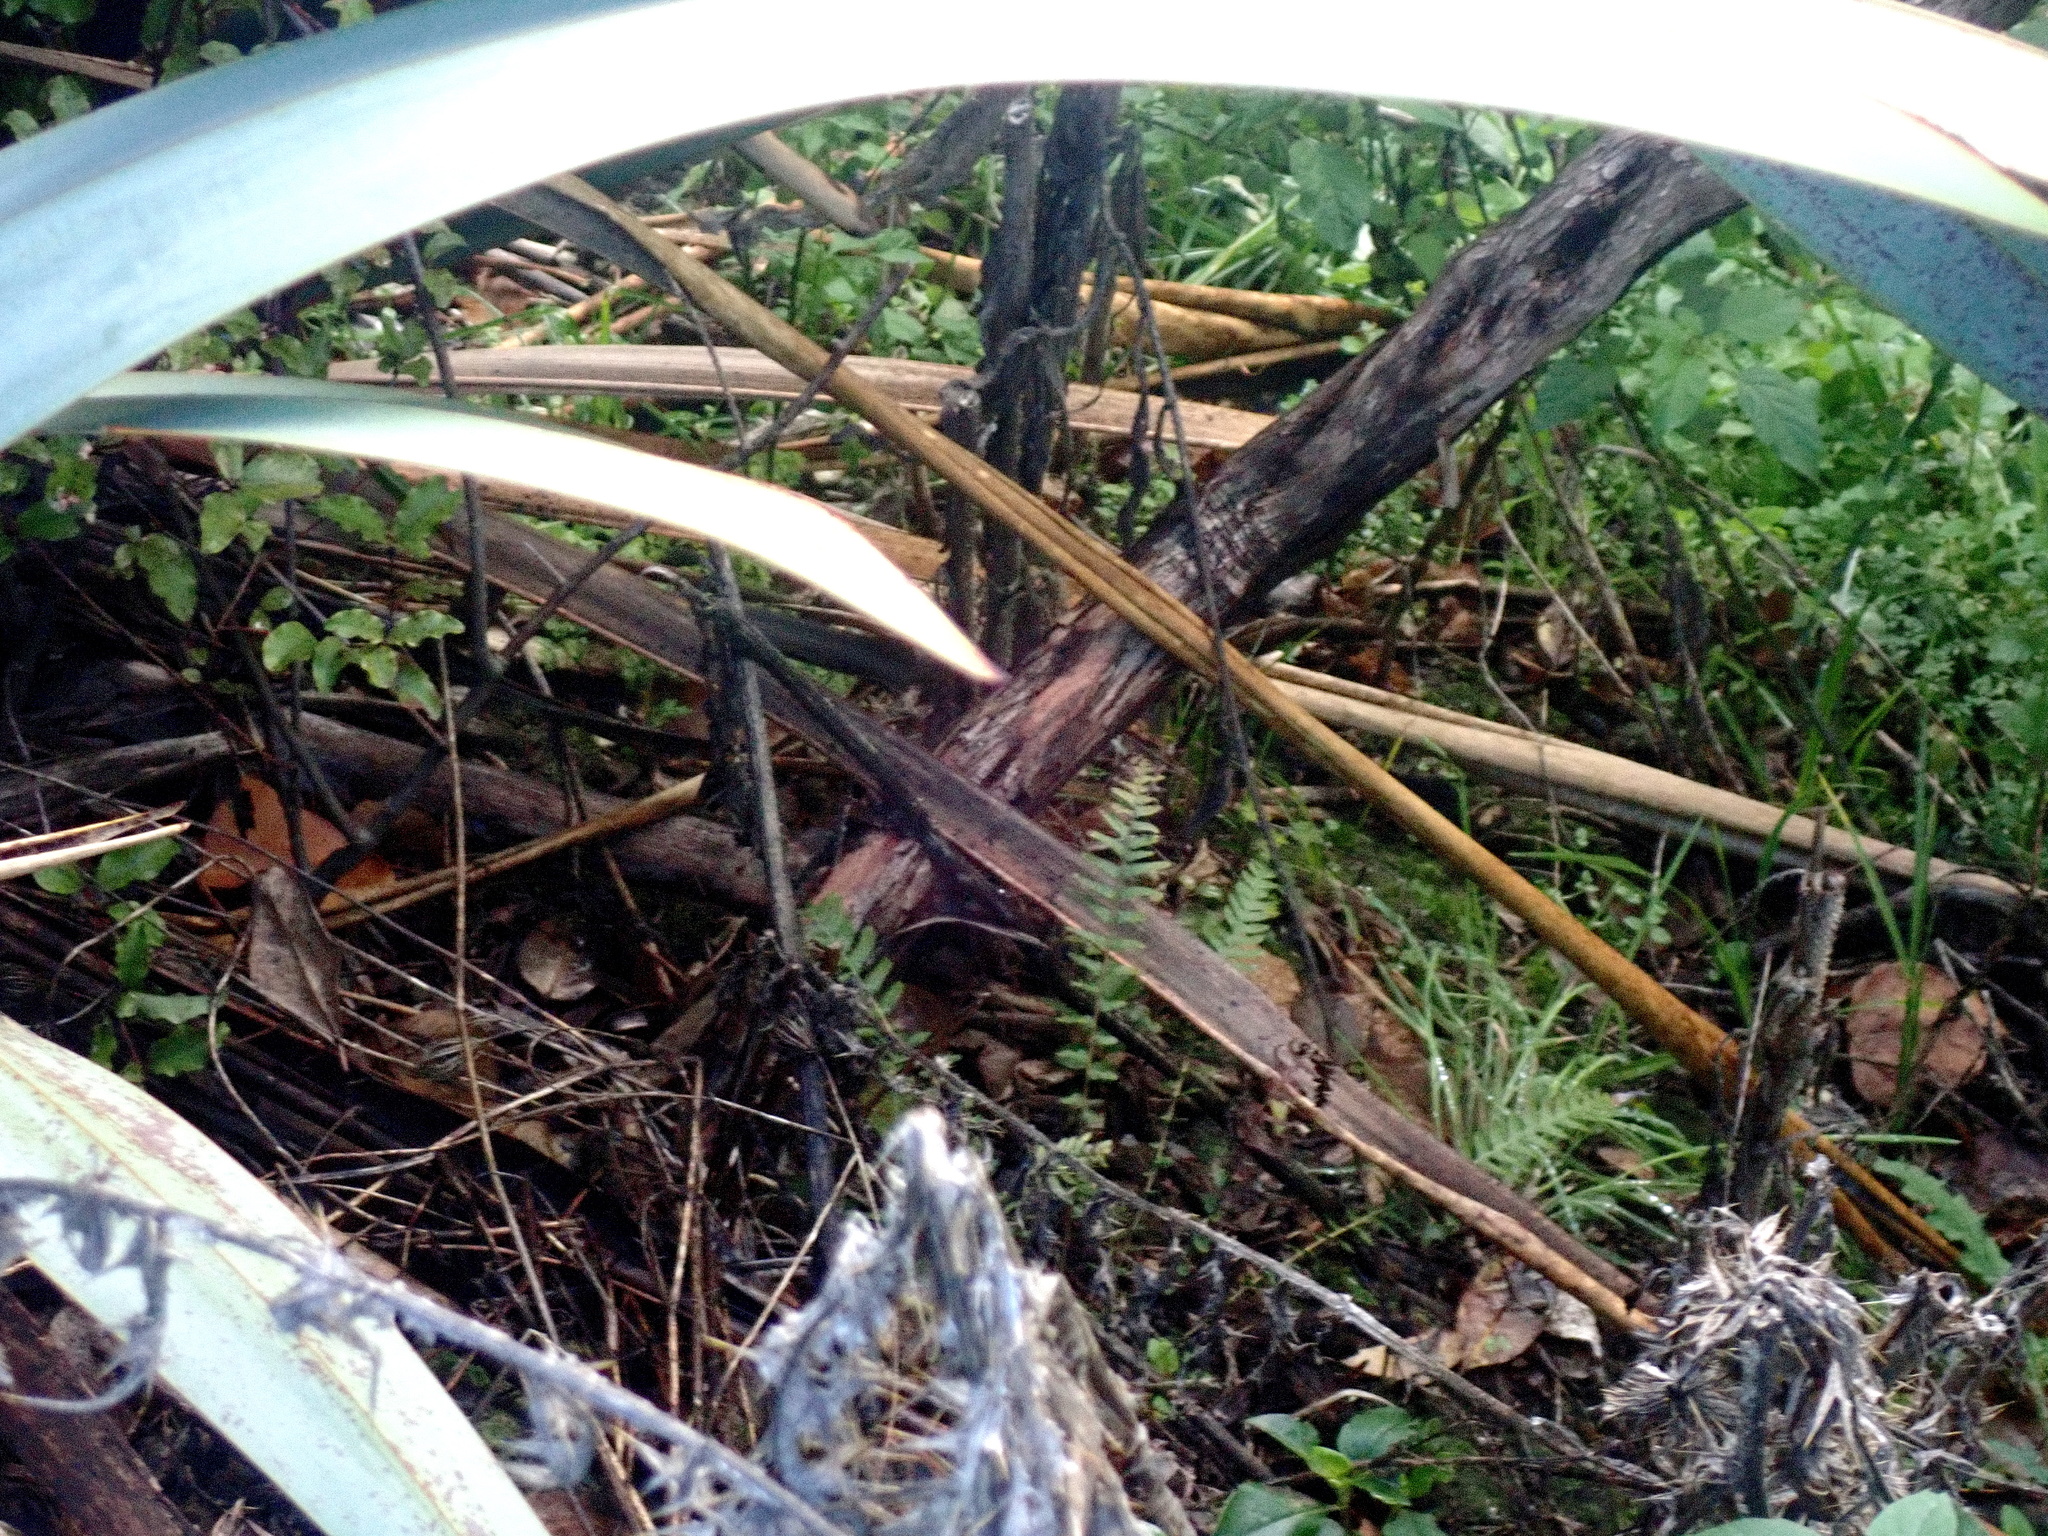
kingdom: Plantae
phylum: Tracheophyta
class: Polypodiopsida
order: Polypodiales
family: Blechnaceae
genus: Doodia
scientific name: Doodia australis
